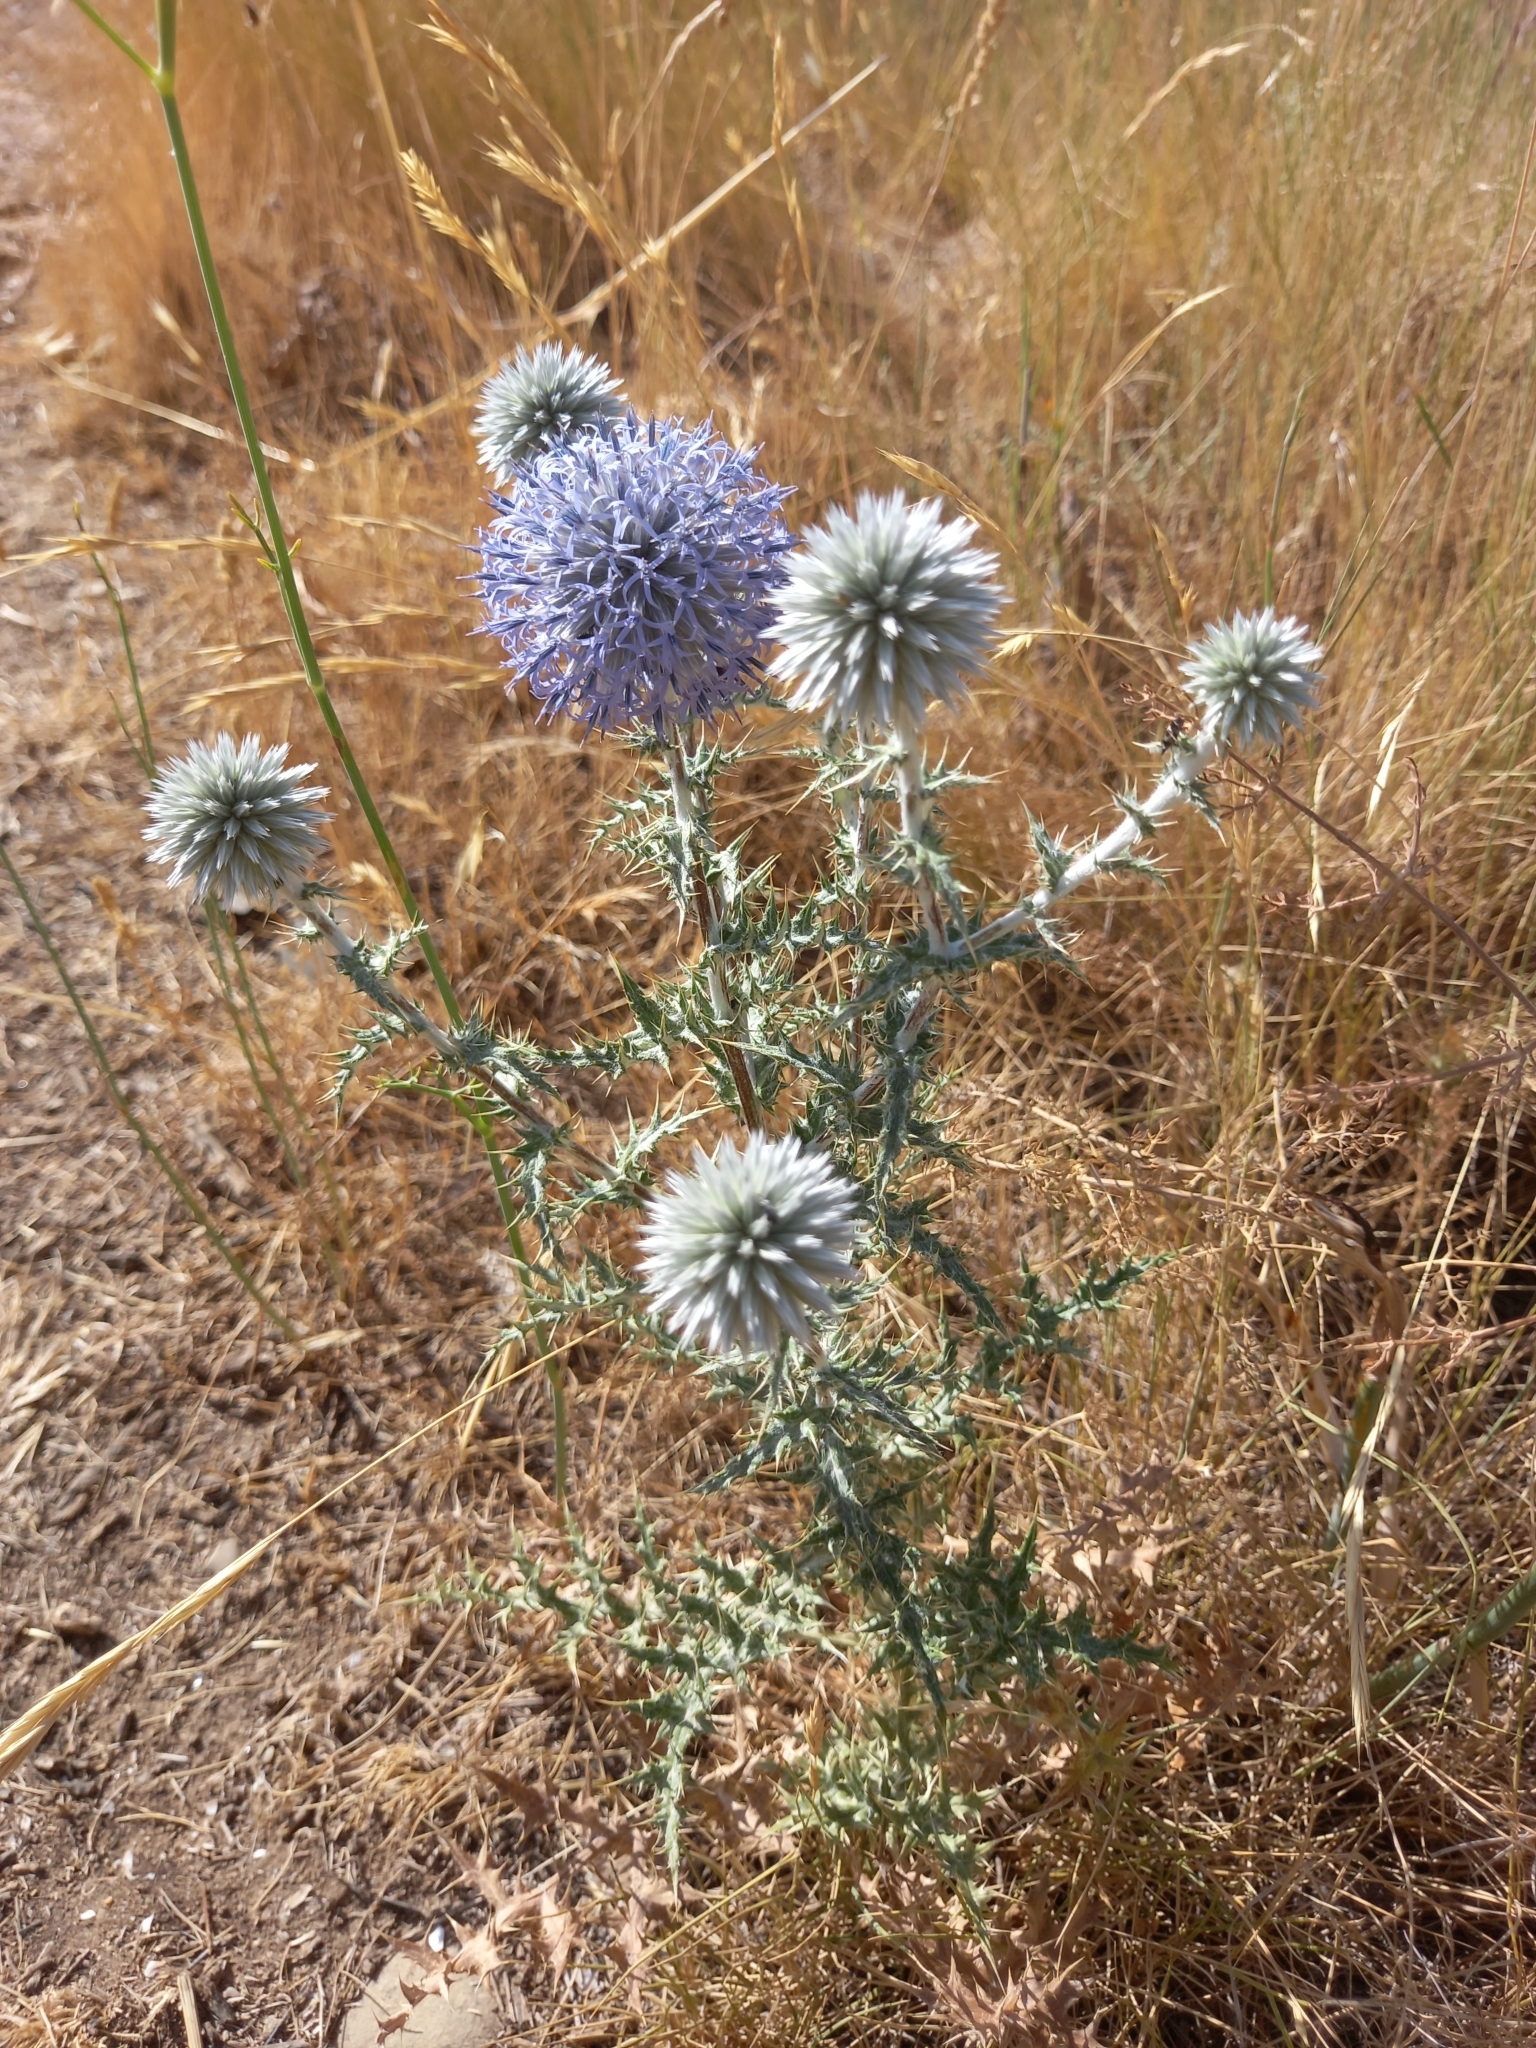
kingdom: Plantae
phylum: Tracheophyta
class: Magnoliopsida
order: Asterales
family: Asteraceae
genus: Echinops
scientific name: Echinops ritro
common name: Globe thistle
